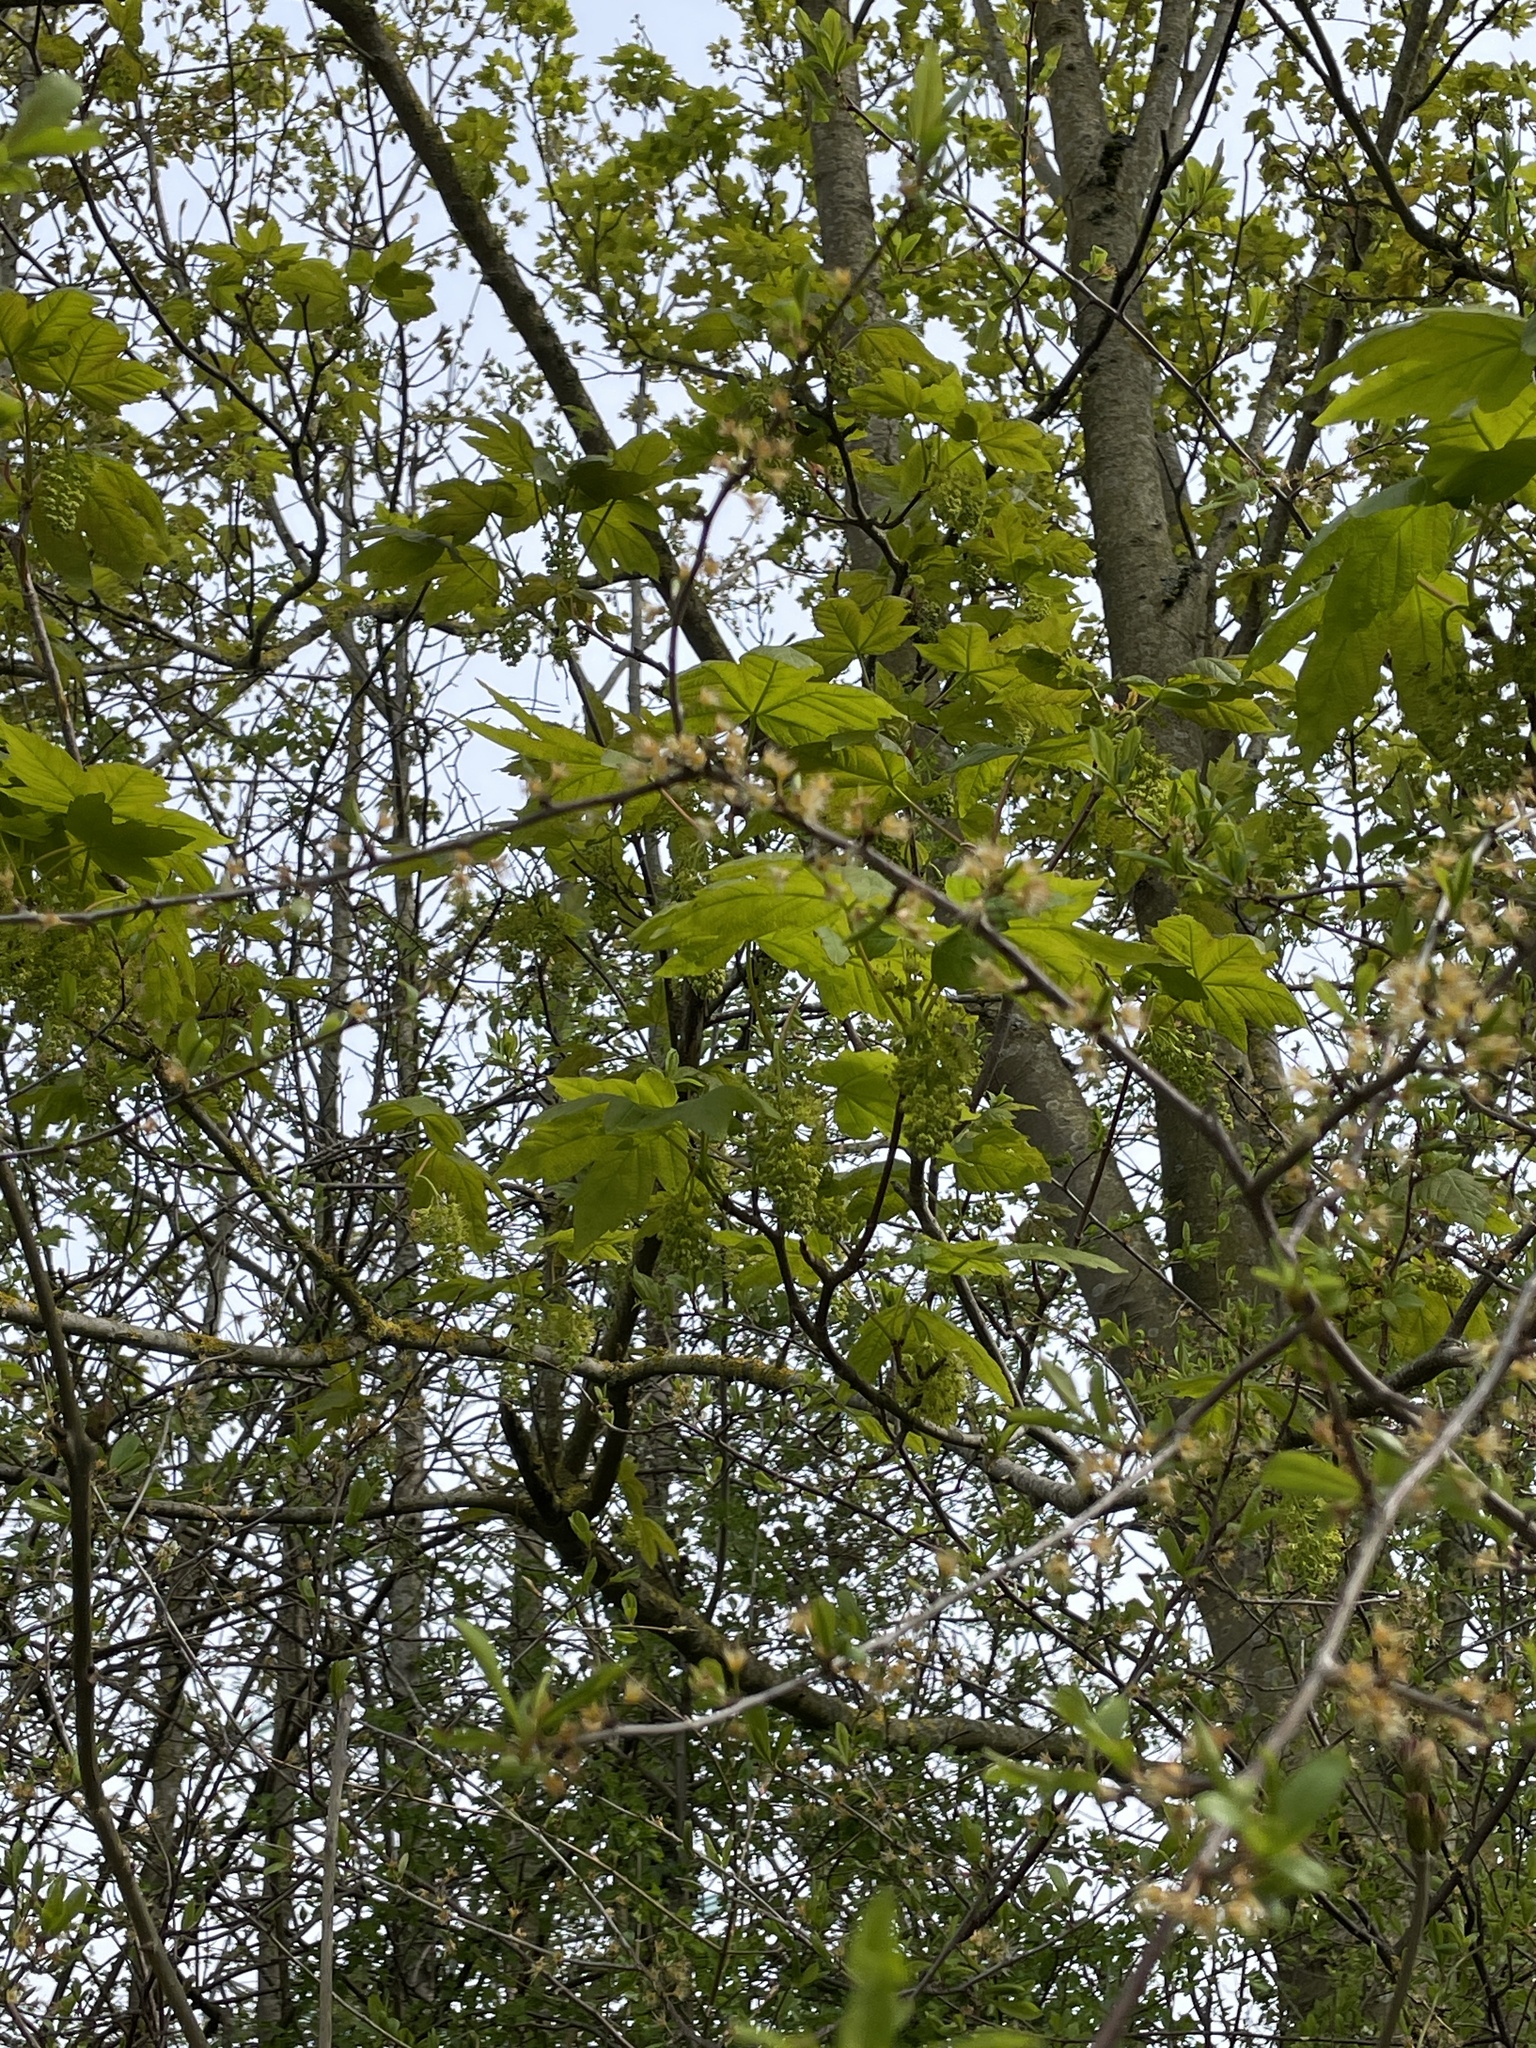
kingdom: Plantae
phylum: Tracheophyta
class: Magnoliopsida
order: Sapindales
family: Sapindaceae
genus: Acer
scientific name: Acer pseudoplatanus
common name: Sycamore
